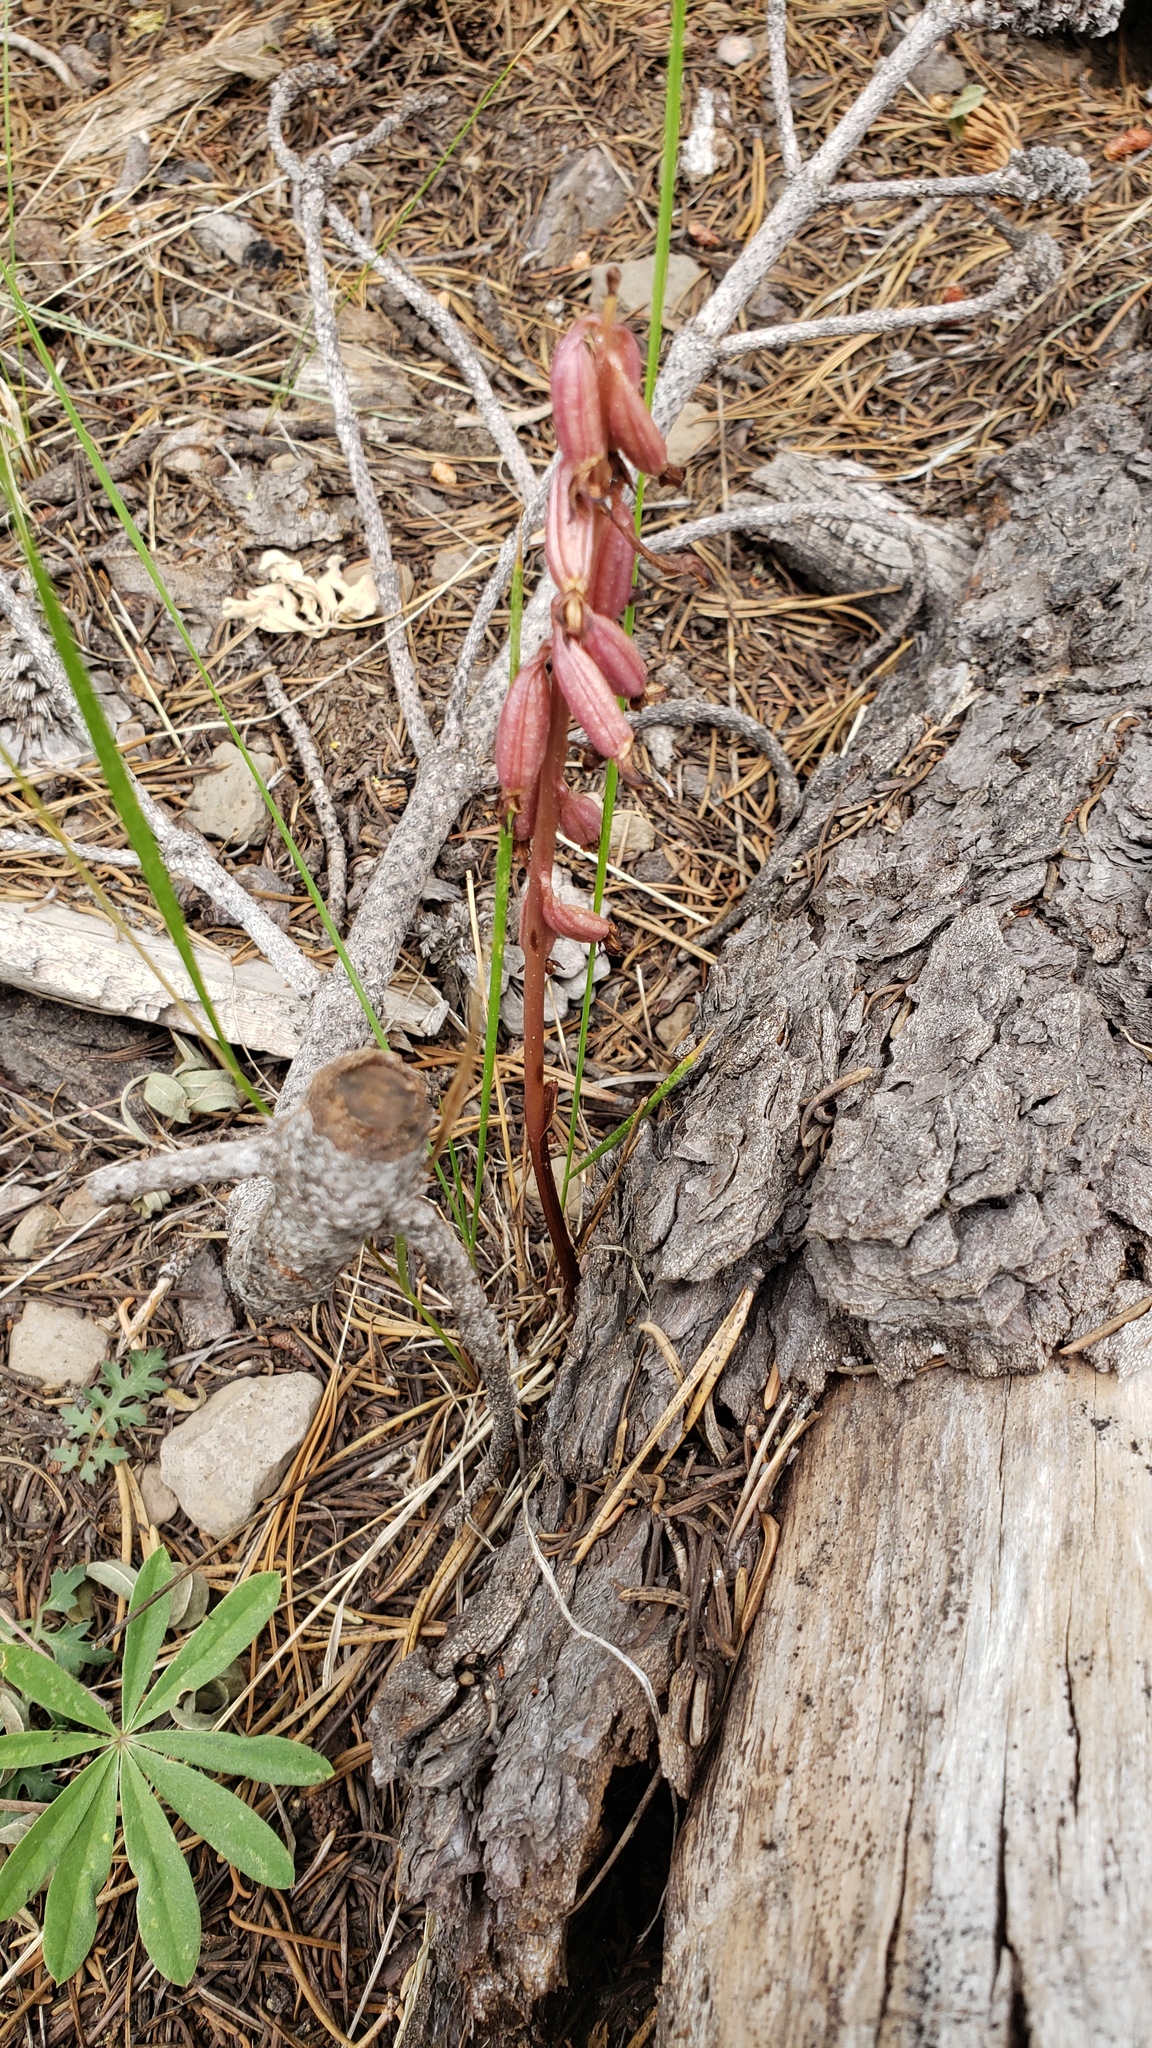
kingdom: Plantae
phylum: Tracheophyta
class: Liliopsida
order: Asparagales
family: Orchidaceae
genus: Corallorhiza
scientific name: Corallorhiza maculata
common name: Spotted coralroot
